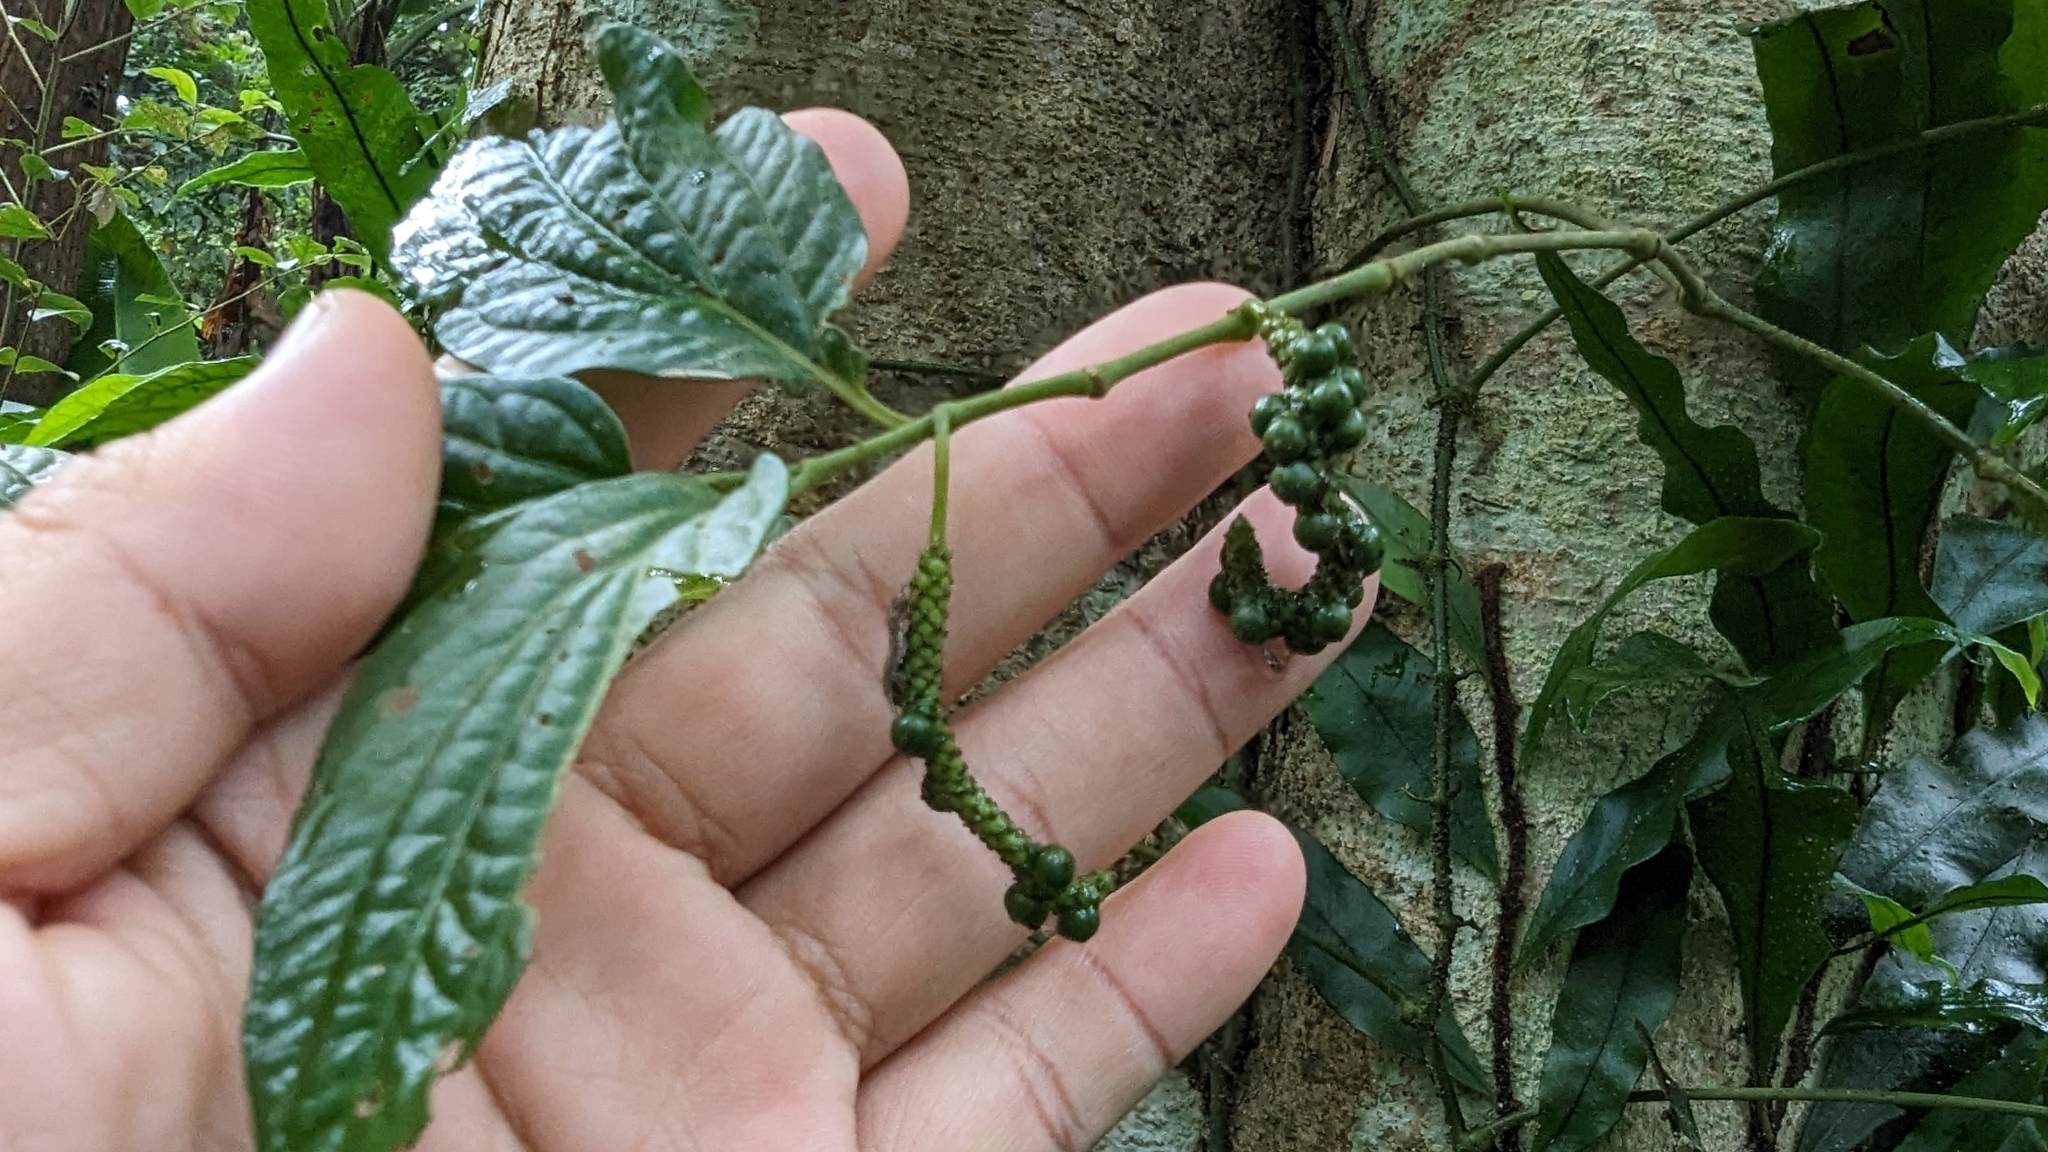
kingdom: Plantae
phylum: Tracheophyta
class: Magnoliopsida
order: Piperales
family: Piperaceae
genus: Piper
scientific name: Piper sintenense
